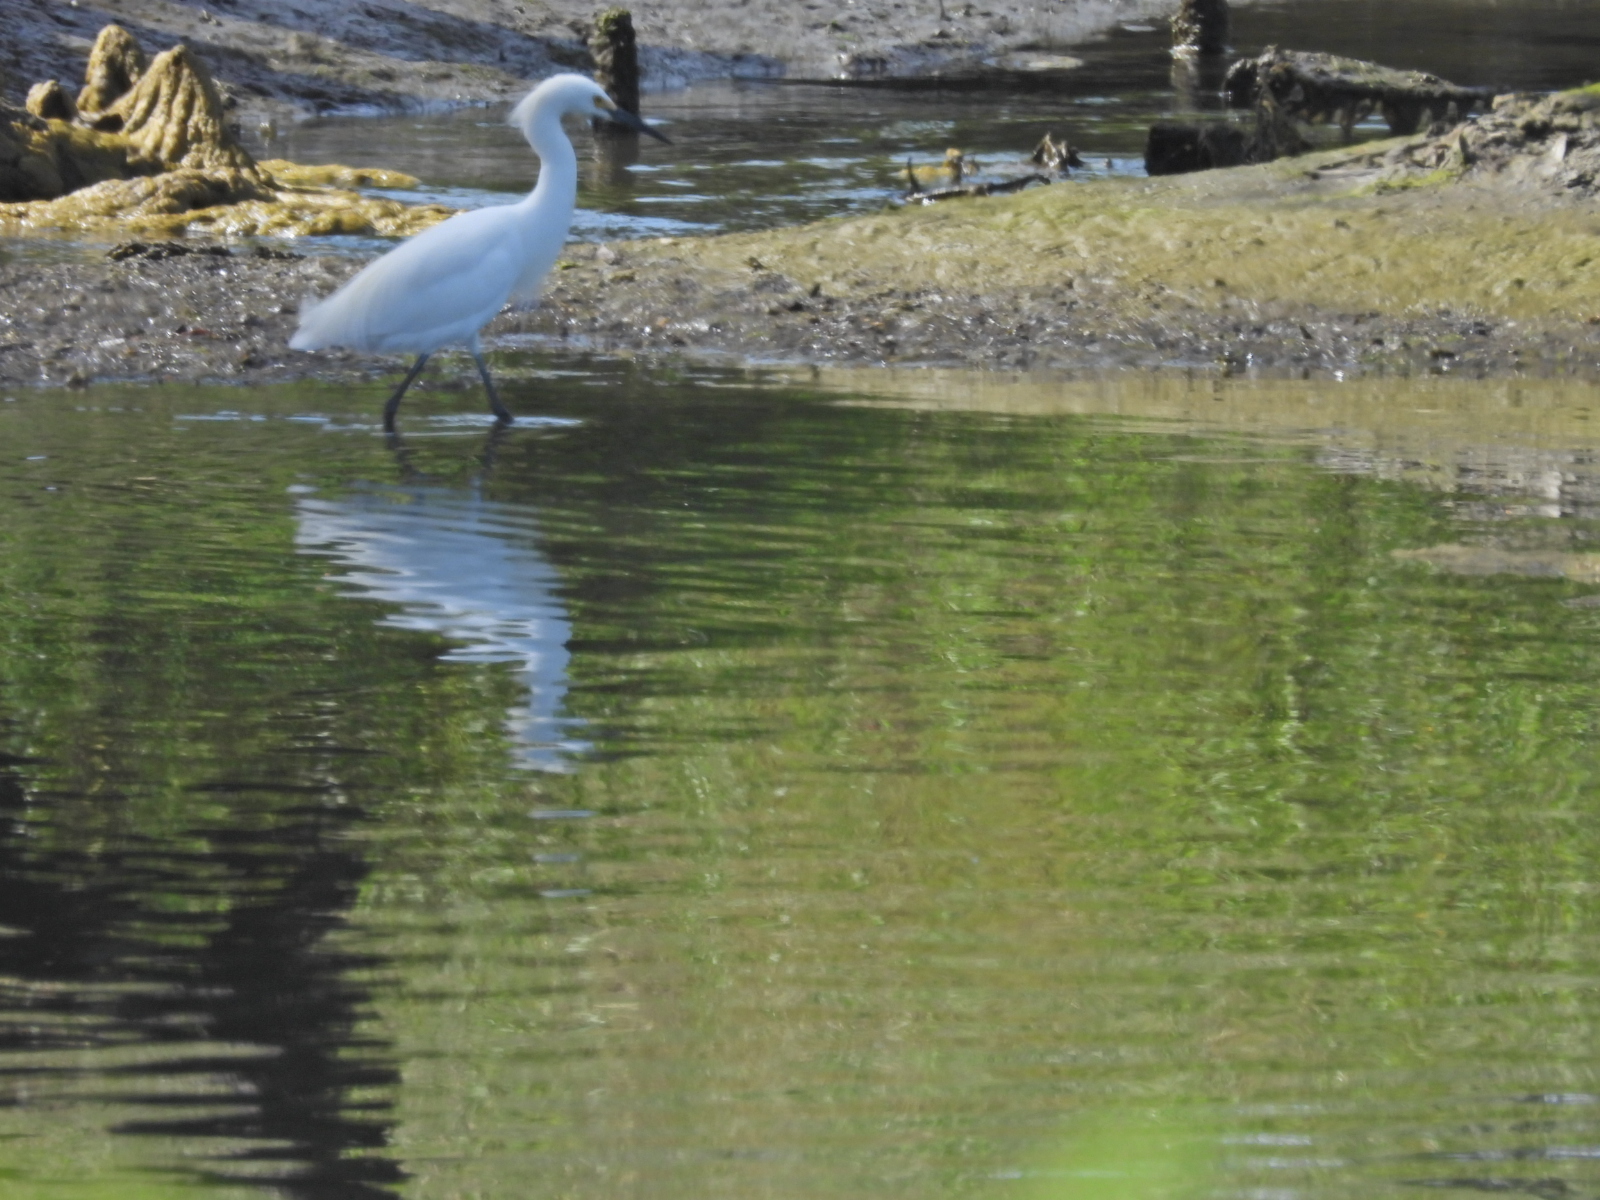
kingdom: Animalia
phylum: Chordata
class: Aves
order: Pelecaniformes
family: Ardeidae
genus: Egretta
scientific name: Egretta thula
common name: Snowy egret
